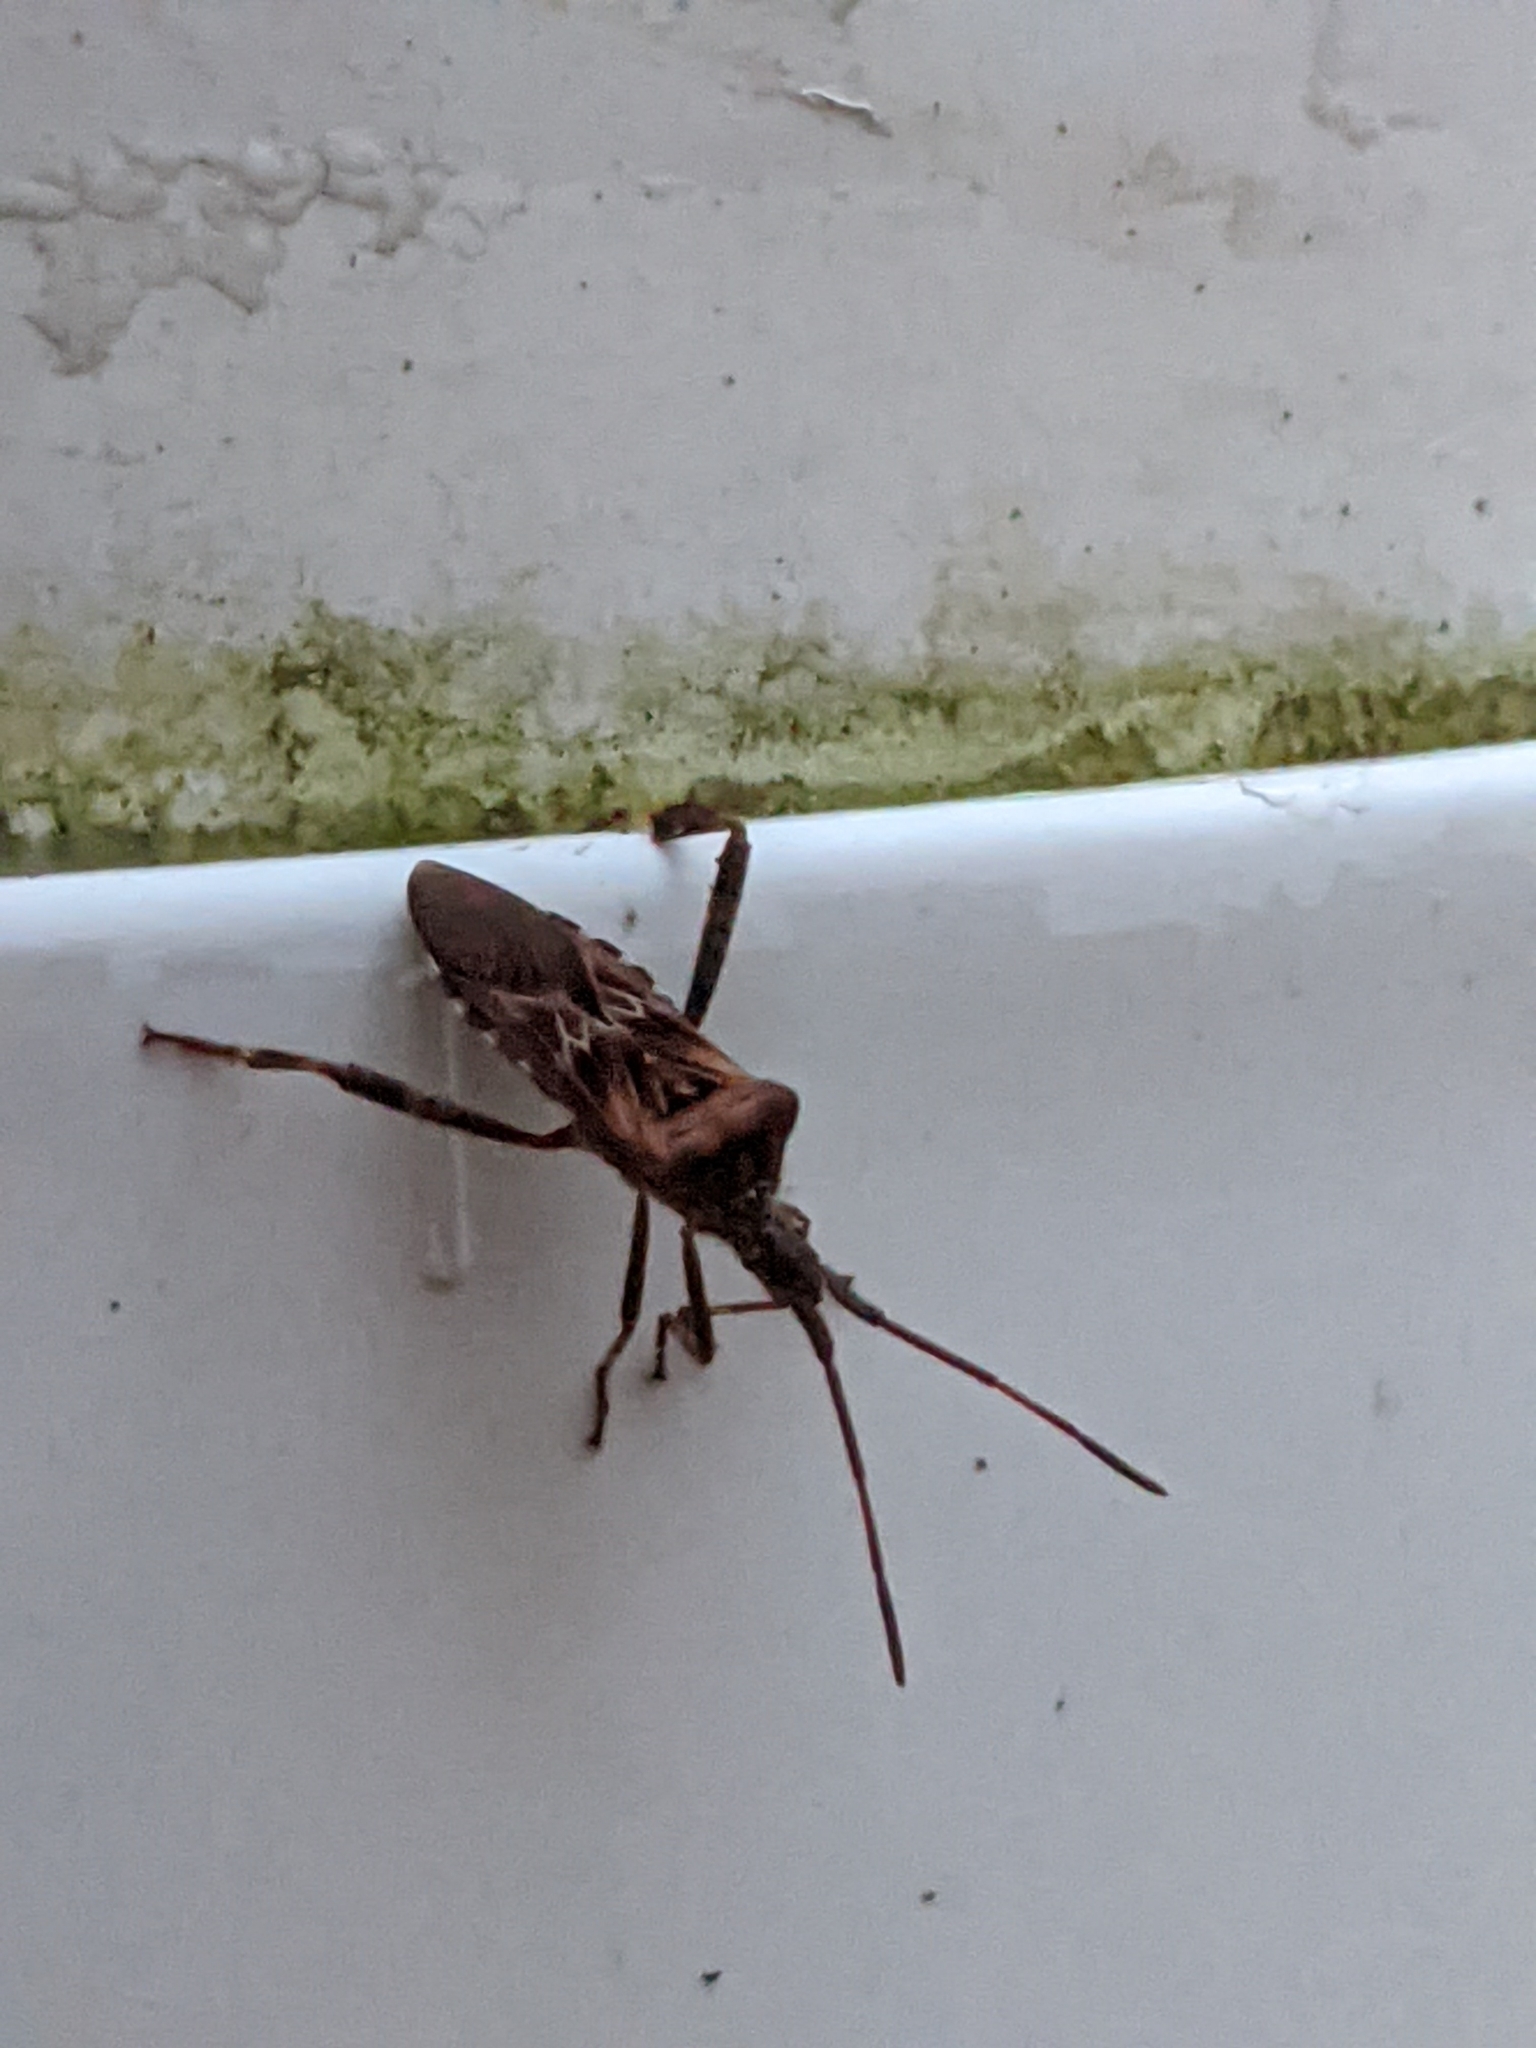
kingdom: Animalia
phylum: Arthropoda
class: Insecta
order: Hemiptera
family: Coreidae
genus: Leptoglossus
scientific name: Leptoglossus occidentalis
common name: Western conifer-seed bug
